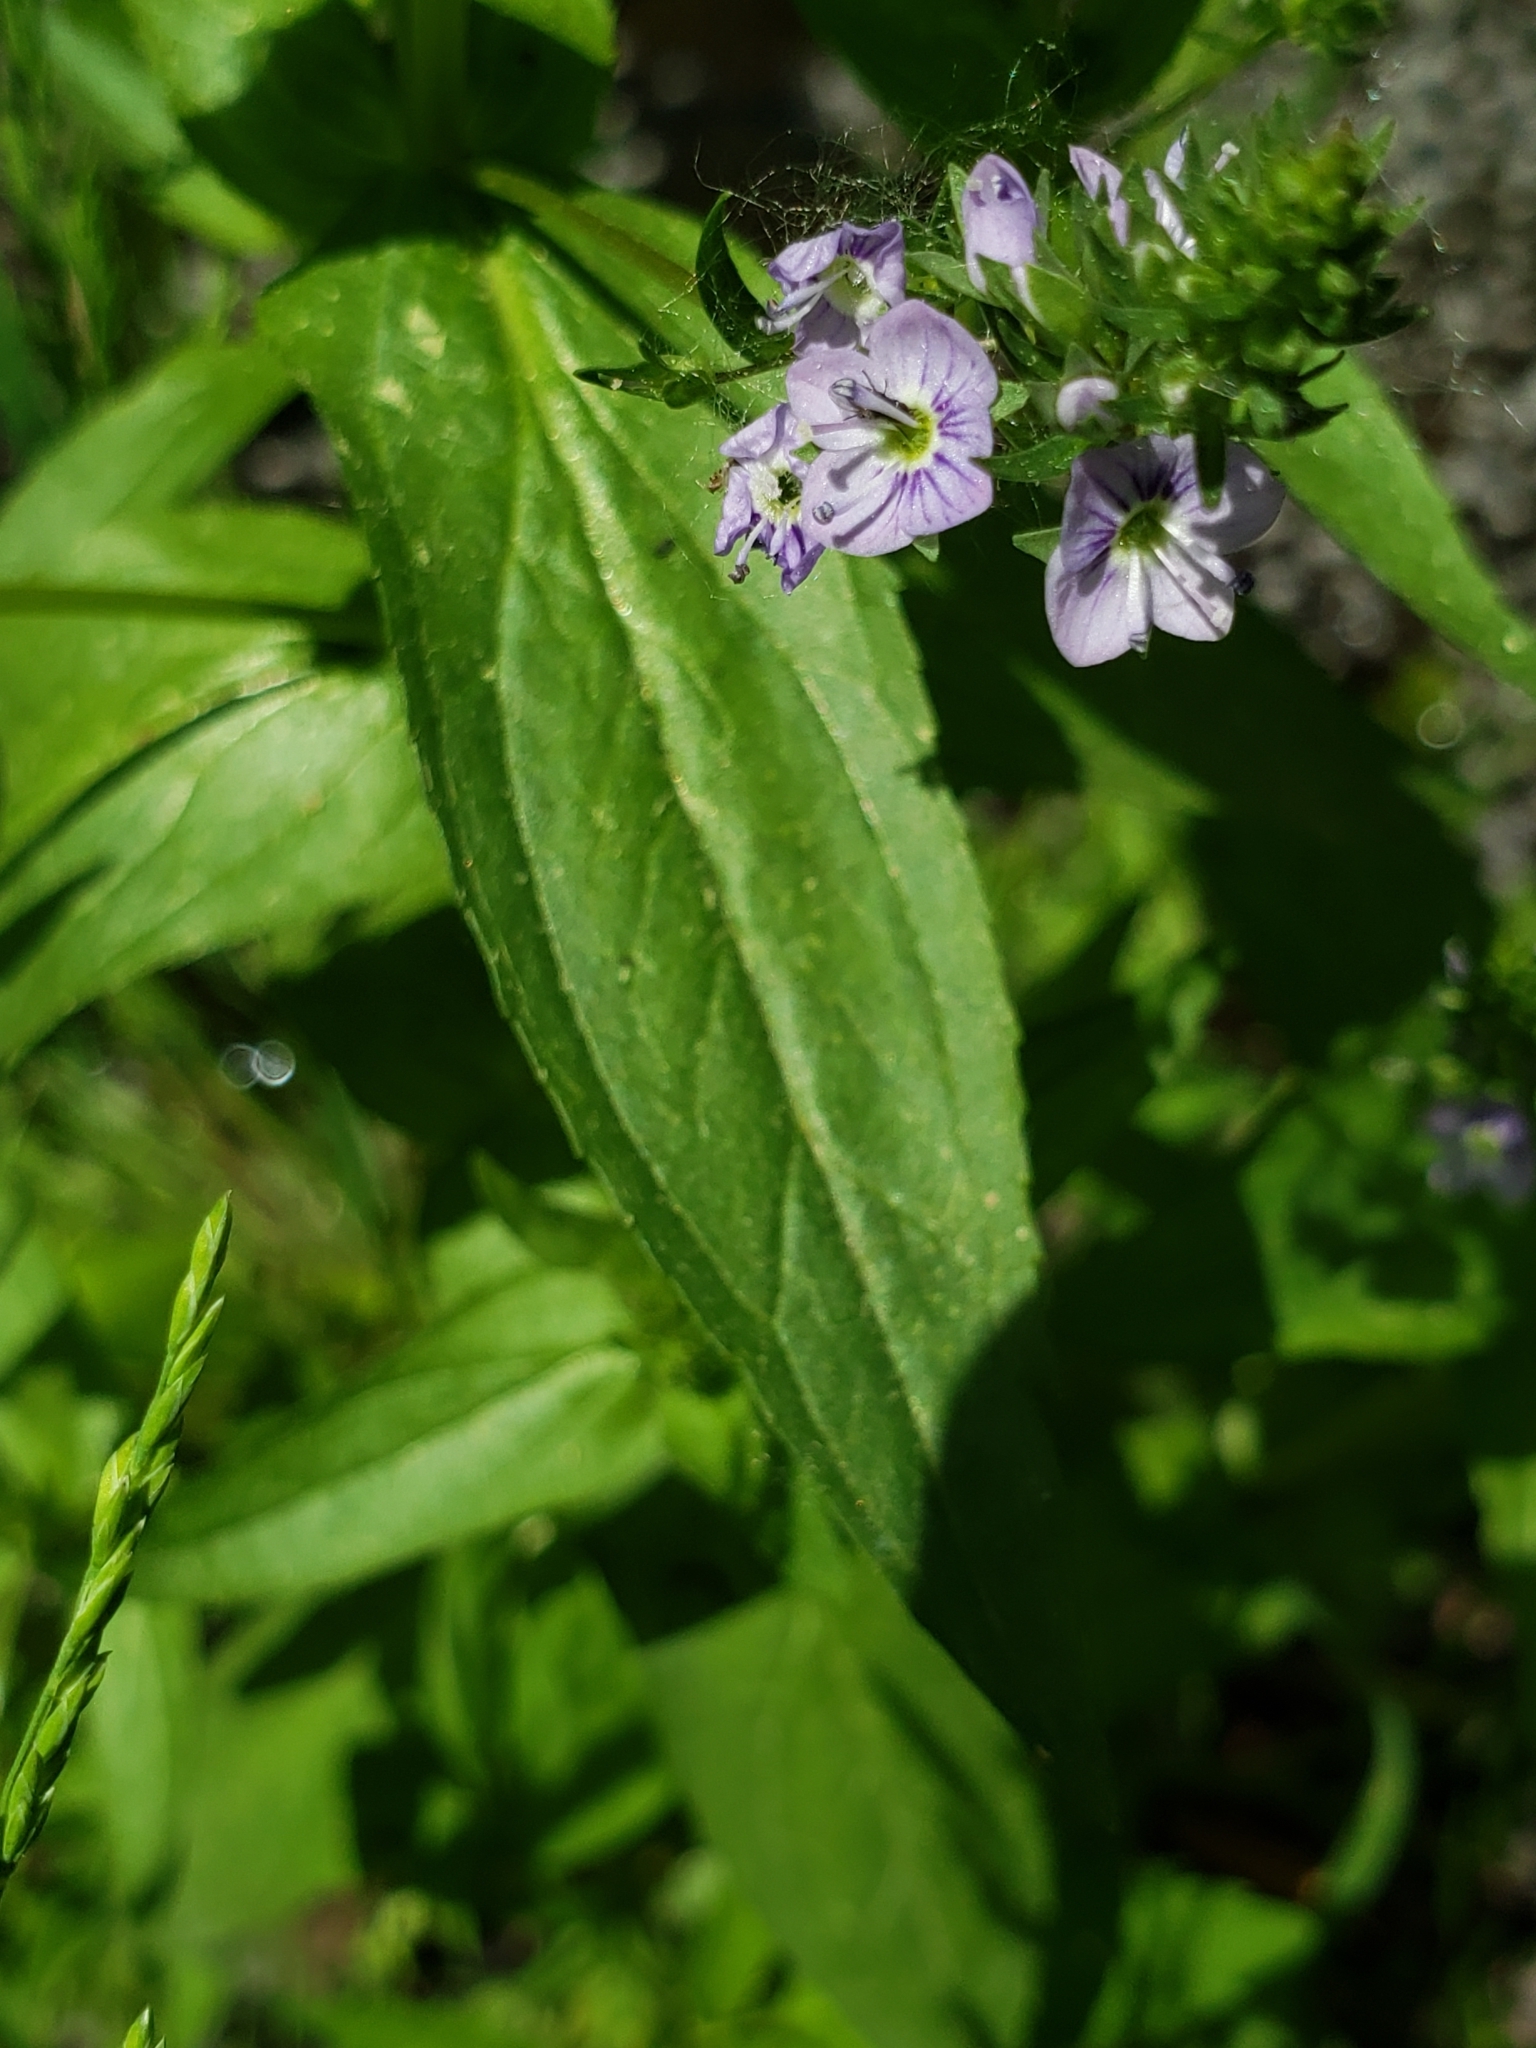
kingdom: Plantae
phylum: Tracheophyta
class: Magnoliopsida
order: Lamiales
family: Plantaginaceae
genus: Veronica
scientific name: Veronica anagallis-aquatica
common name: Water speedwell
